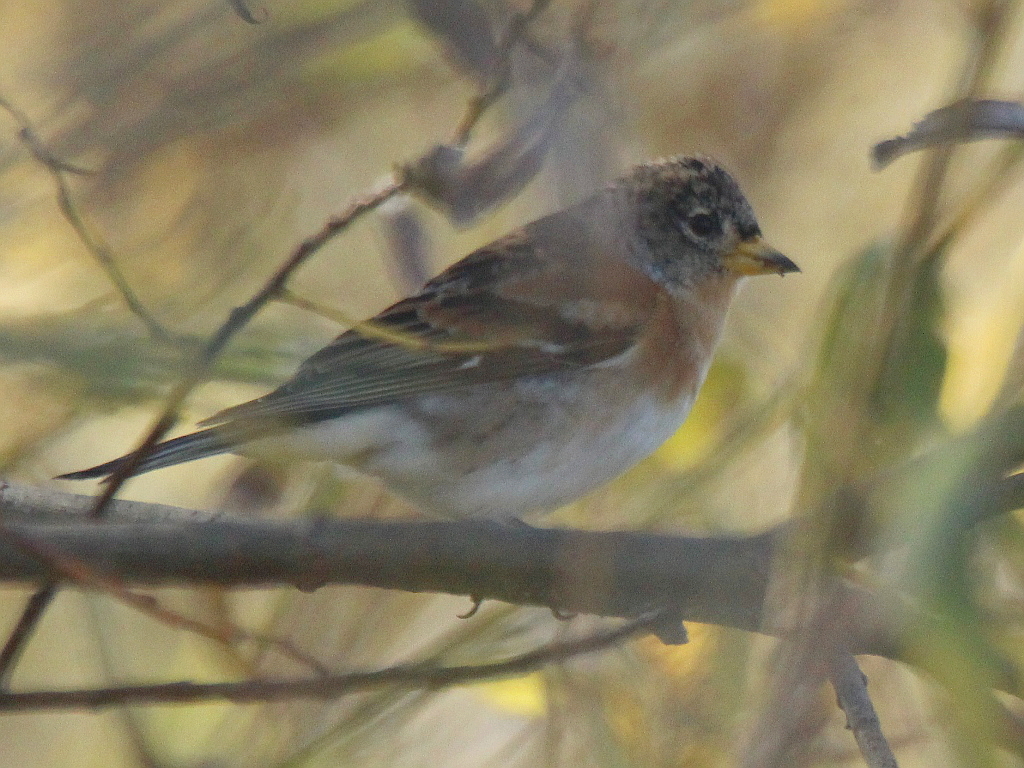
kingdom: Animalia
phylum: Chordata
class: Aves
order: Passeriformes
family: Fringillidae
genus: Fringilla
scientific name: Fringilla montifringilla
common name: Brambling
